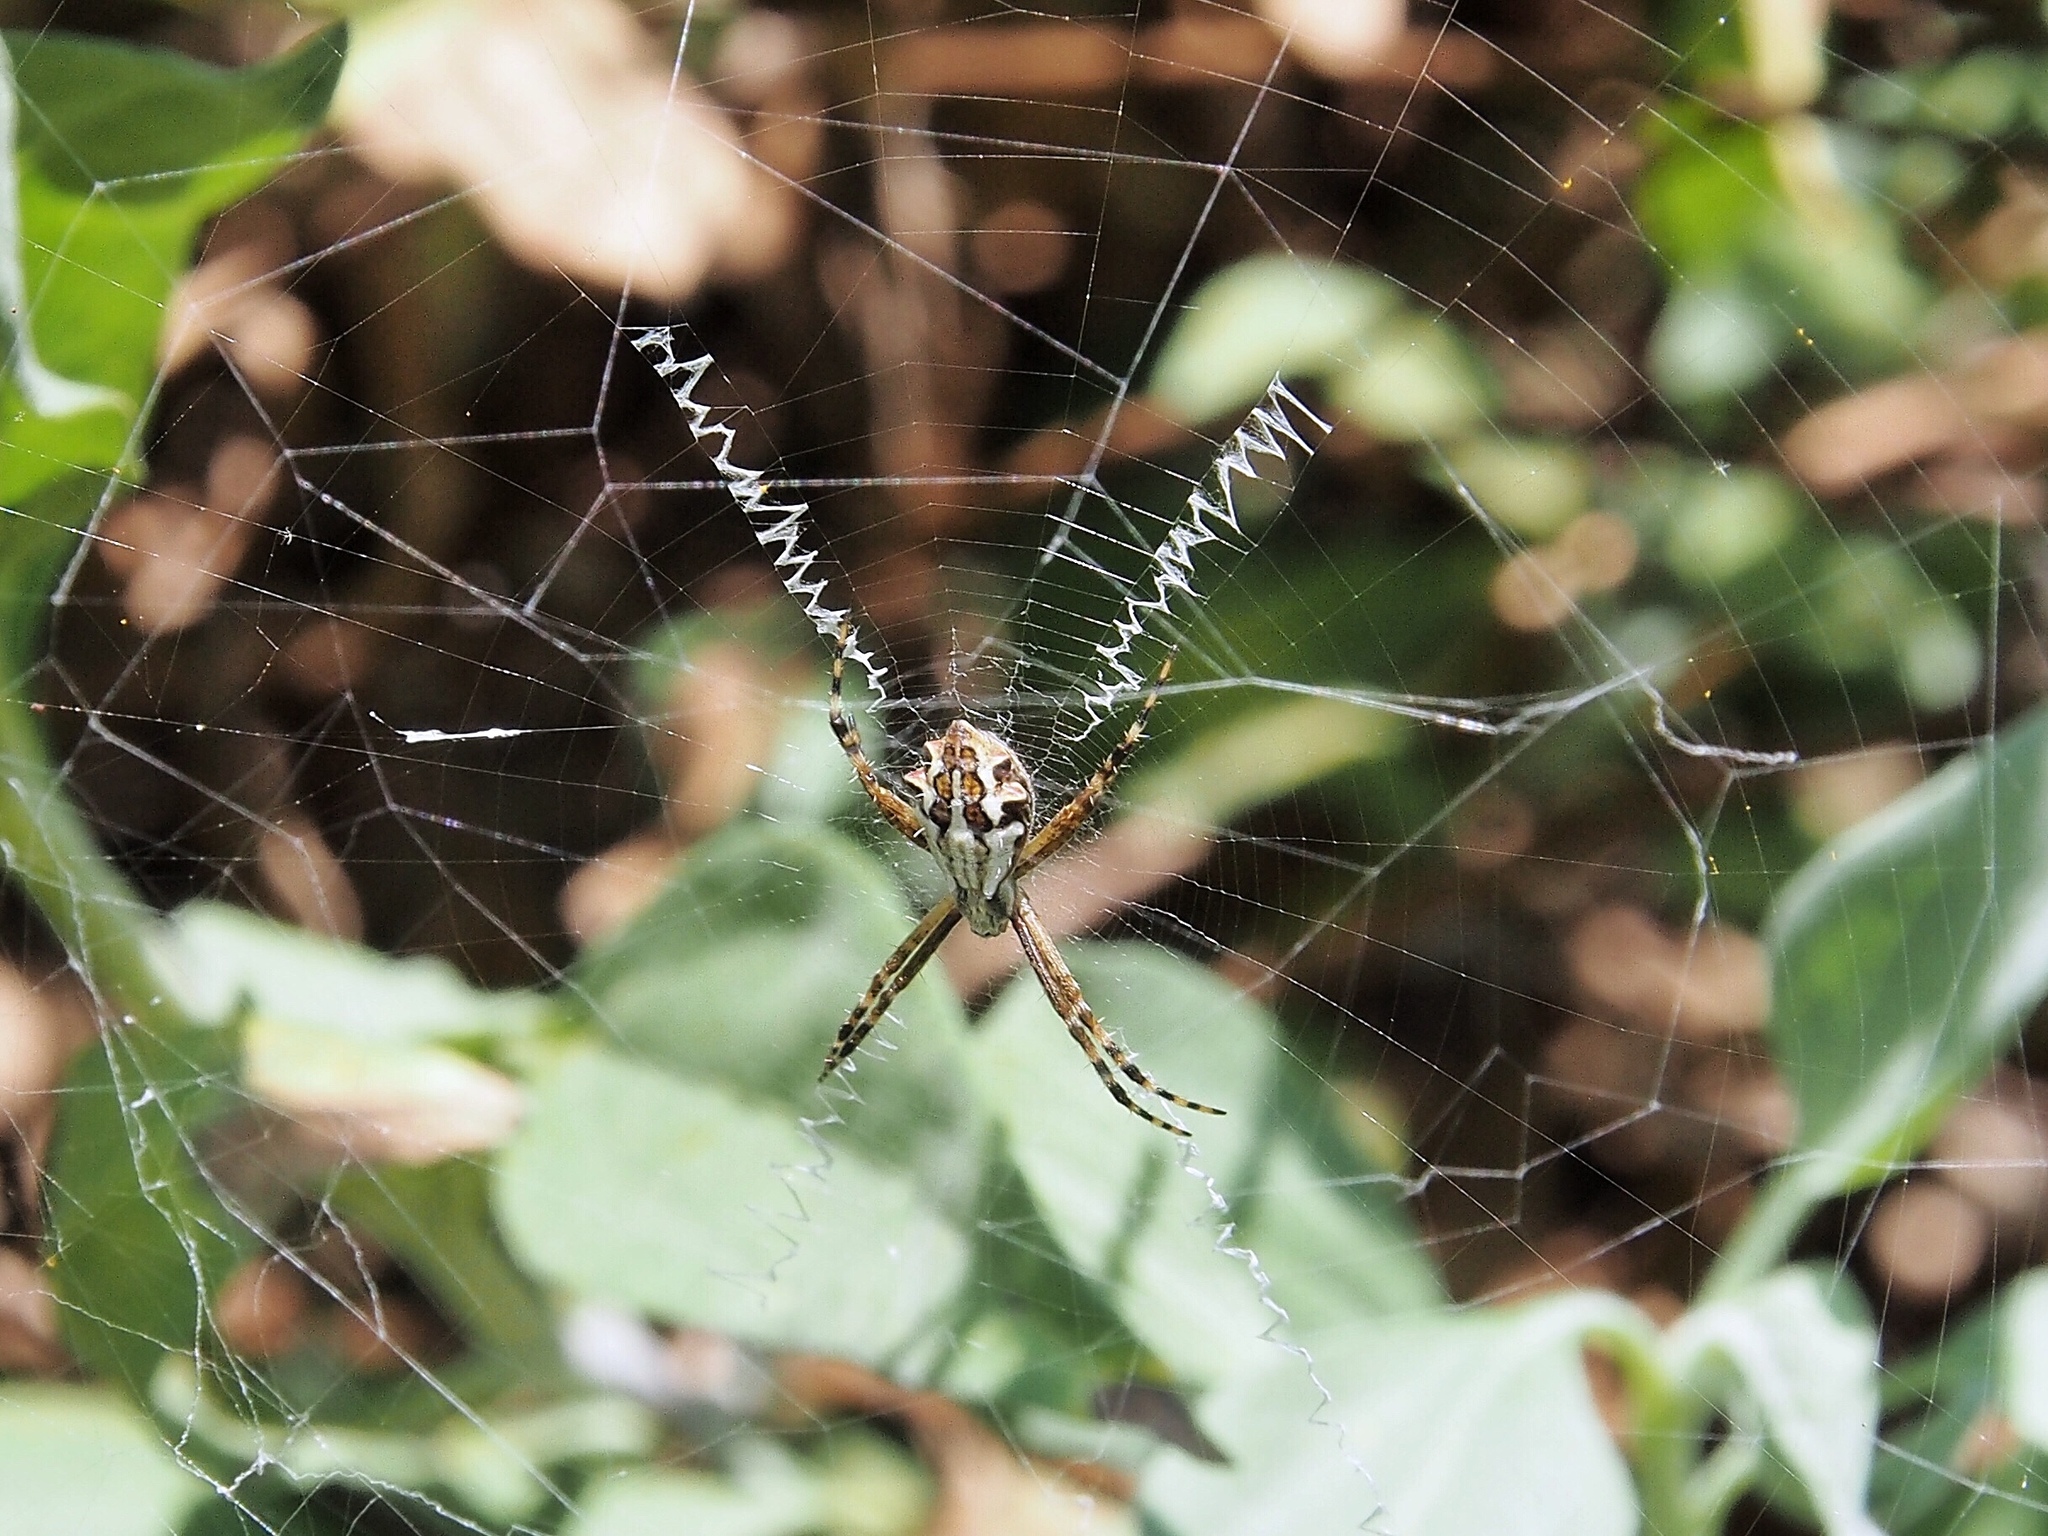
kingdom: Animalia
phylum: Arthropoda
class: Arachnida
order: Araneae
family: Araneidae
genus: Argiope
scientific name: Argiope argentata
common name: Orb weavers
